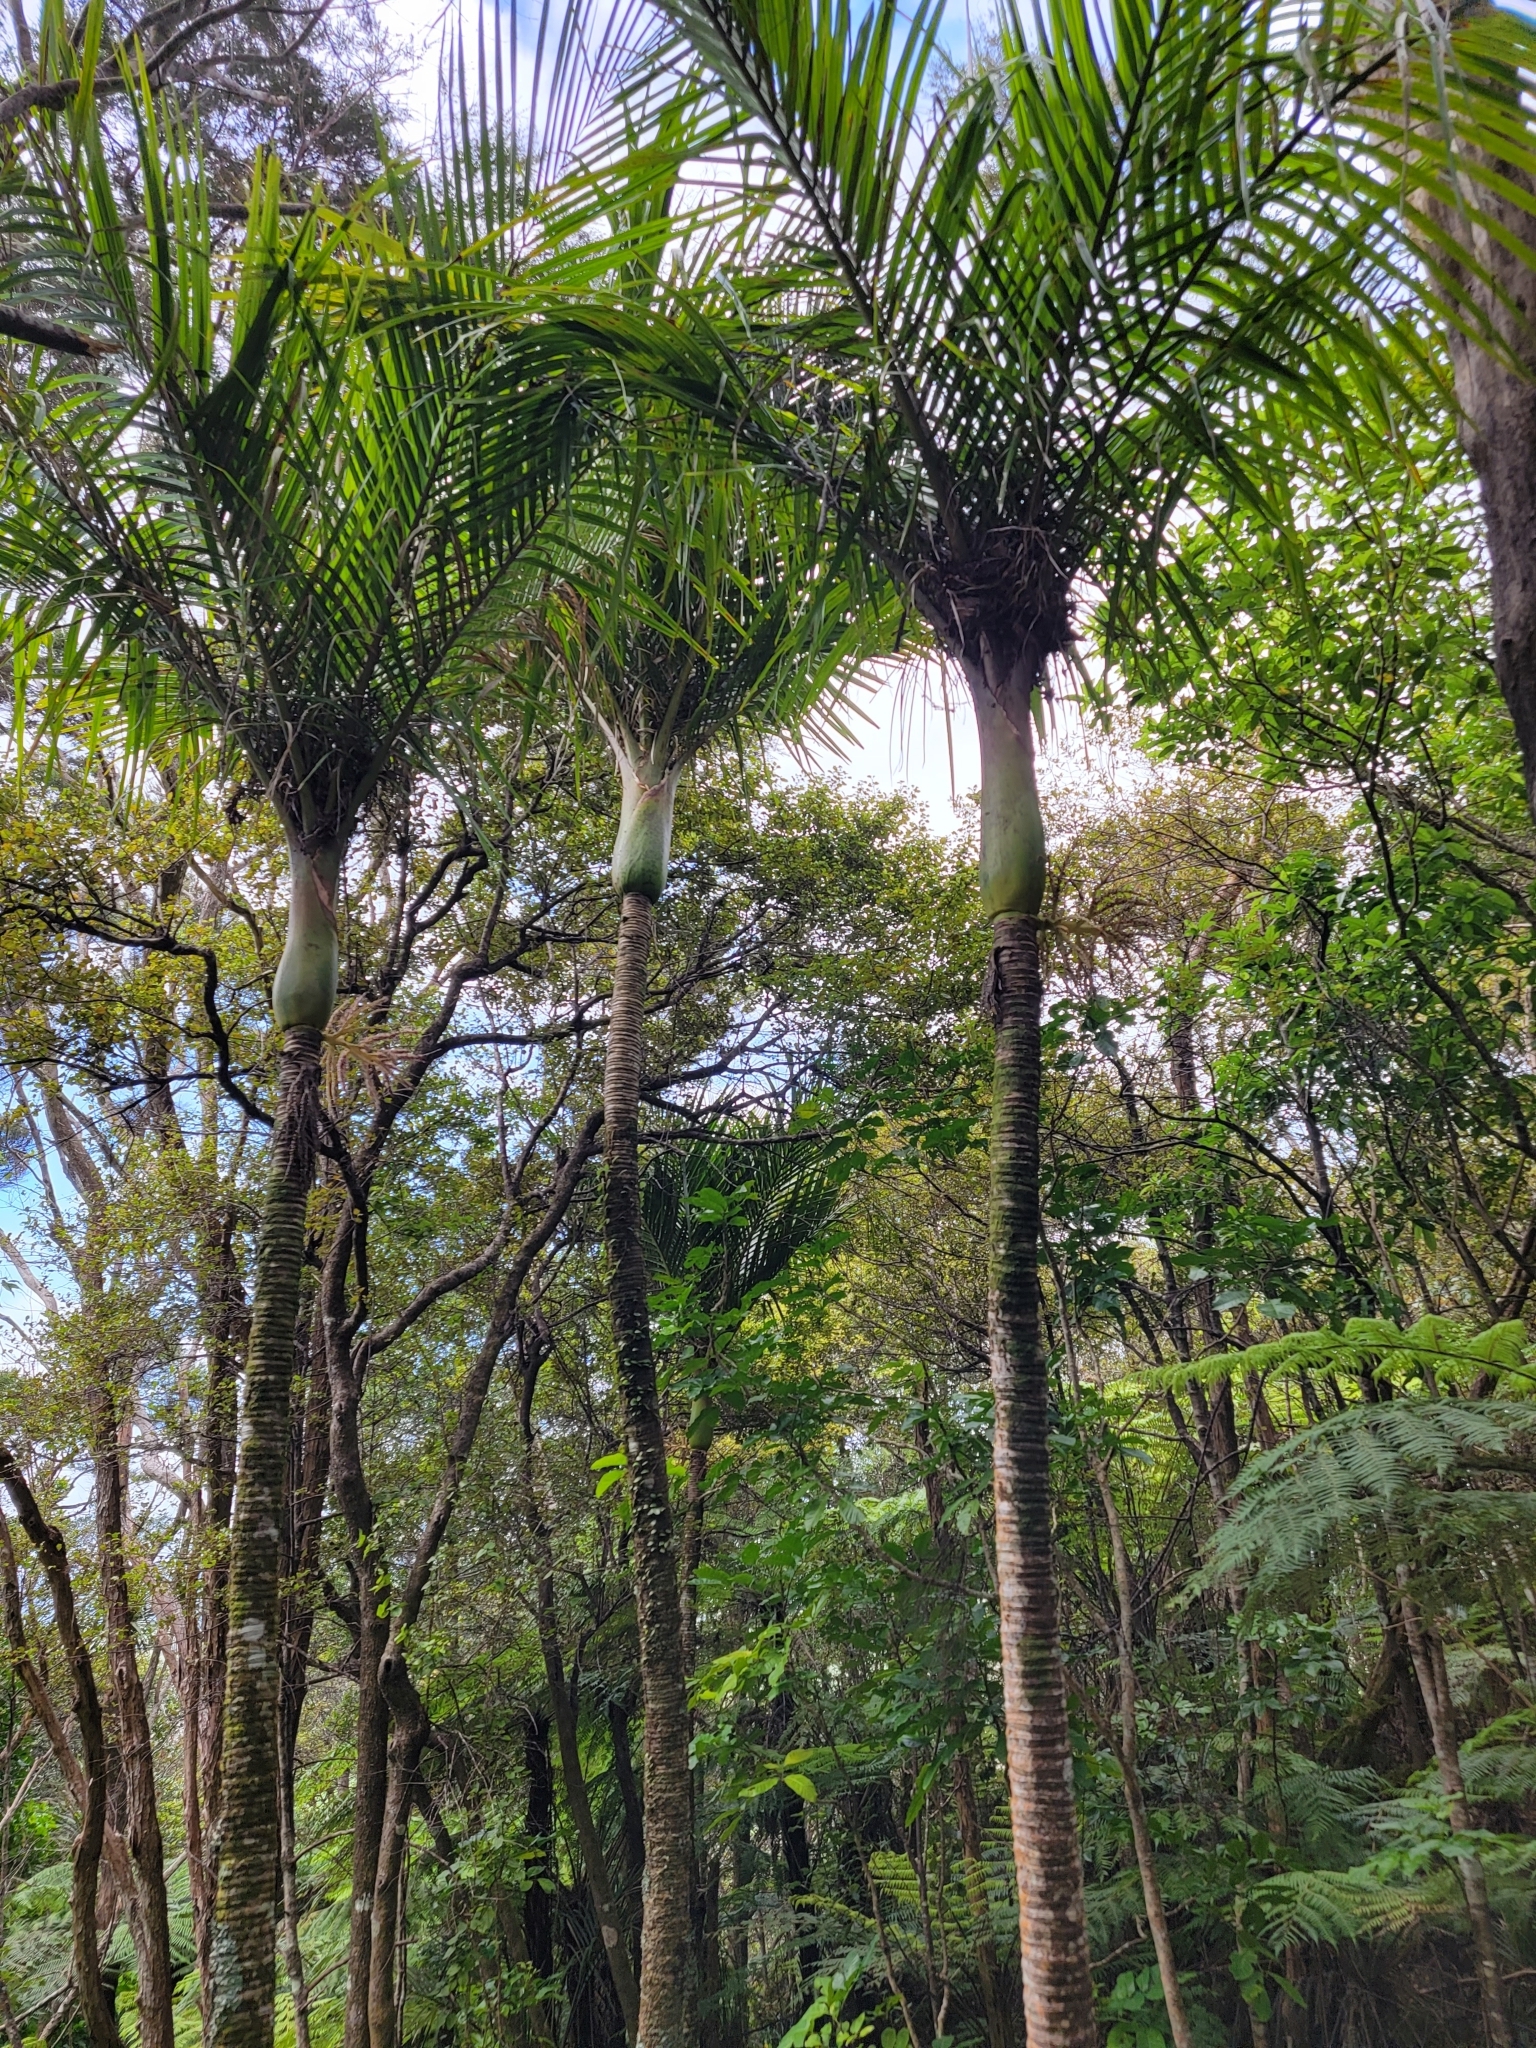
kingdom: Plantae
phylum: Tracheophyta
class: Liliopsida
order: Arecales
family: Arecaceae
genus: Rhopalostylis
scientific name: Rhopalostylis sapida
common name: Feather-duster palm
